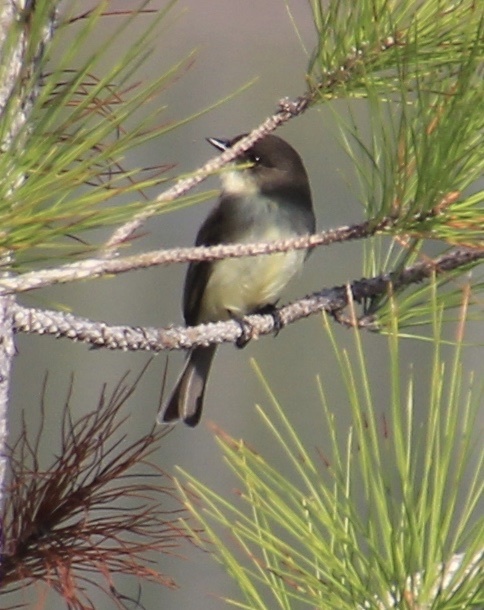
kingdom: Animalia
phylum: Chordata
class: Aves
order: Passeriformes
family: Tyrannidae
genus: Sayornis
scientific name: Sayornis phoebe
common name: Eastern phoebe
